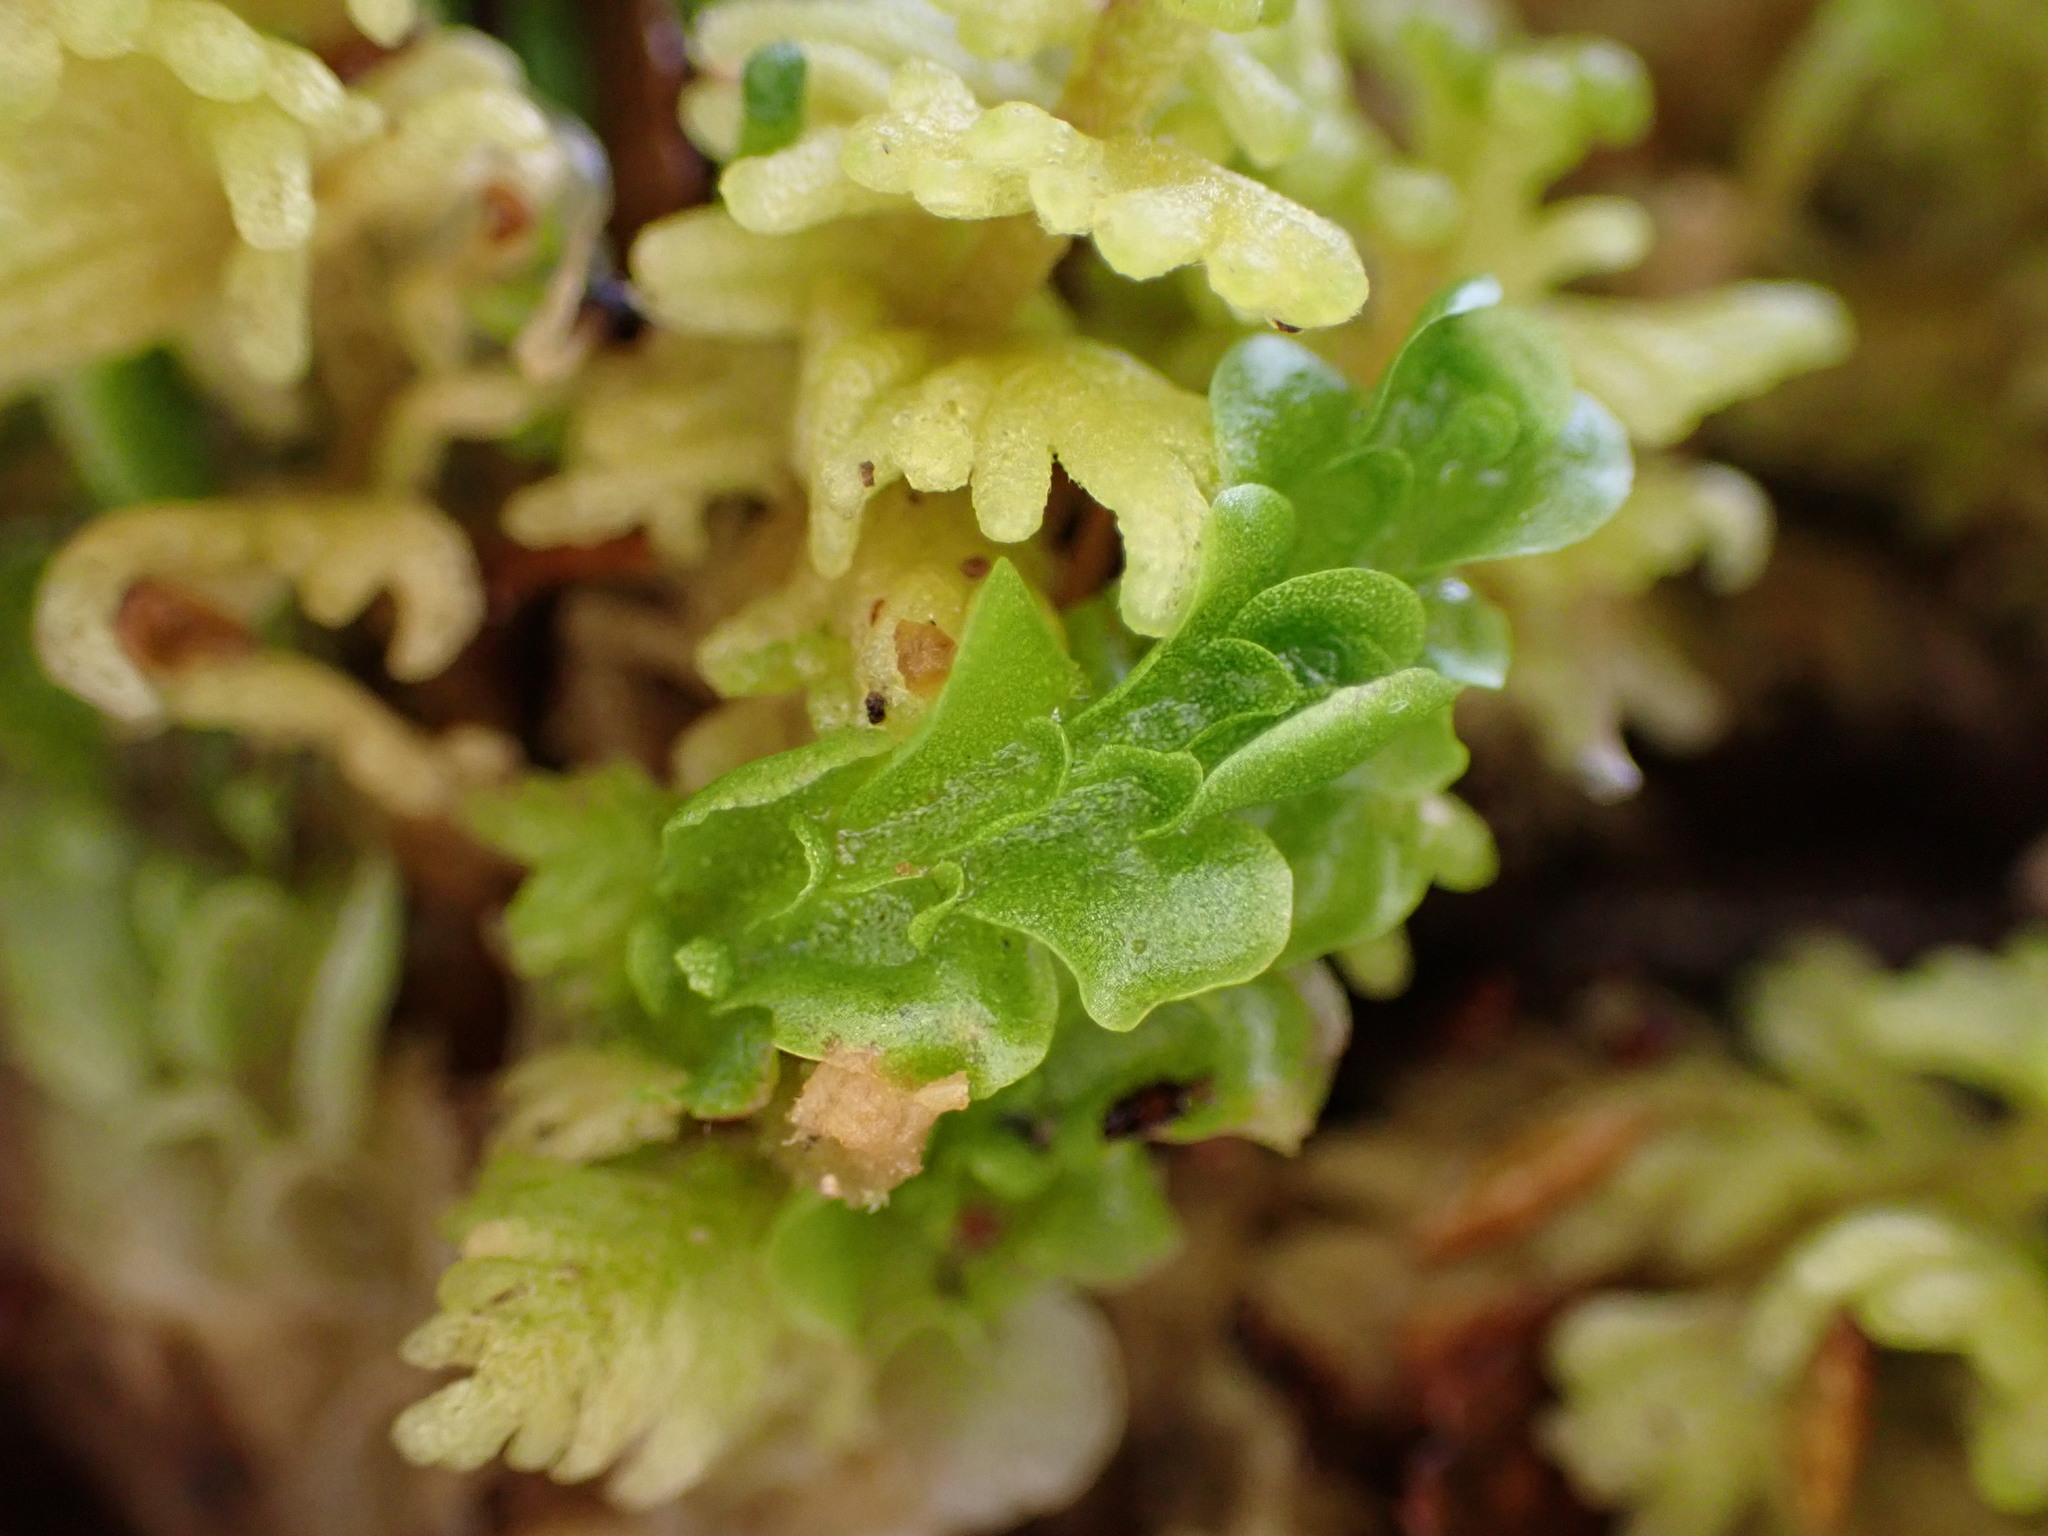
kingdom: Plantae
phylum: Marchantiophyta
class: Haplomitriopsida
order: Treubiales
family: Treubiaceae
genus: Treubia
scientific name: Treubia pygmaea
